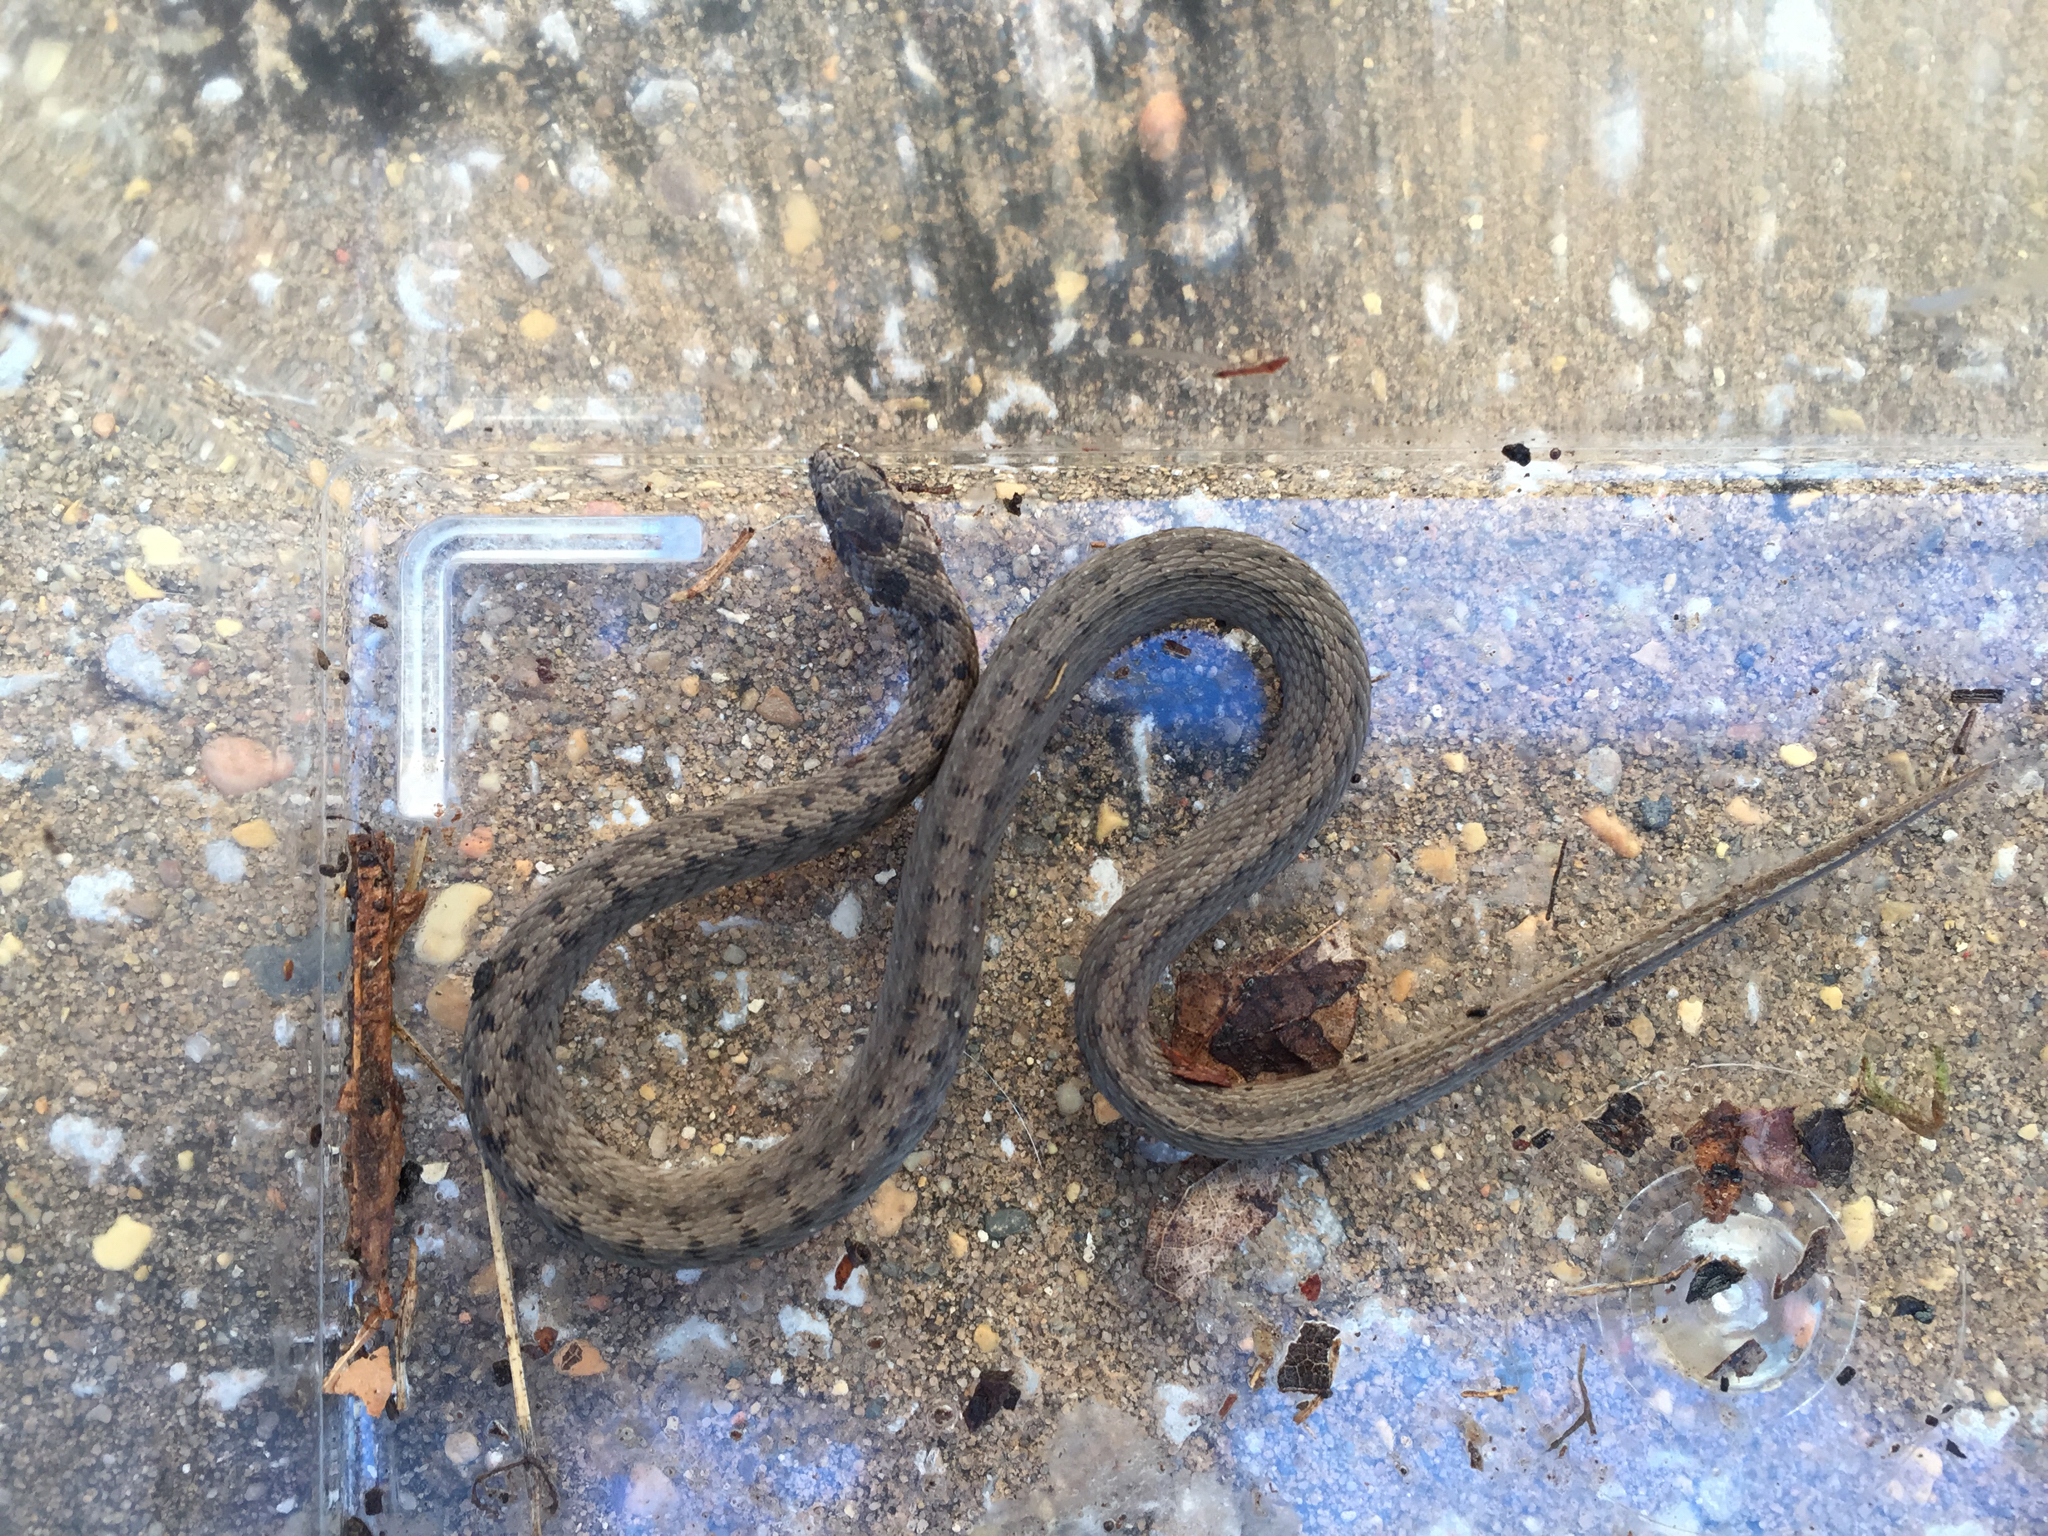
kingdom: Animalia
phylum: Chordata
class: Squamata
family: Colubridae
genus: Storeria
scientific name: Storeria dekayi
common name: (dekay’s) brown snake
